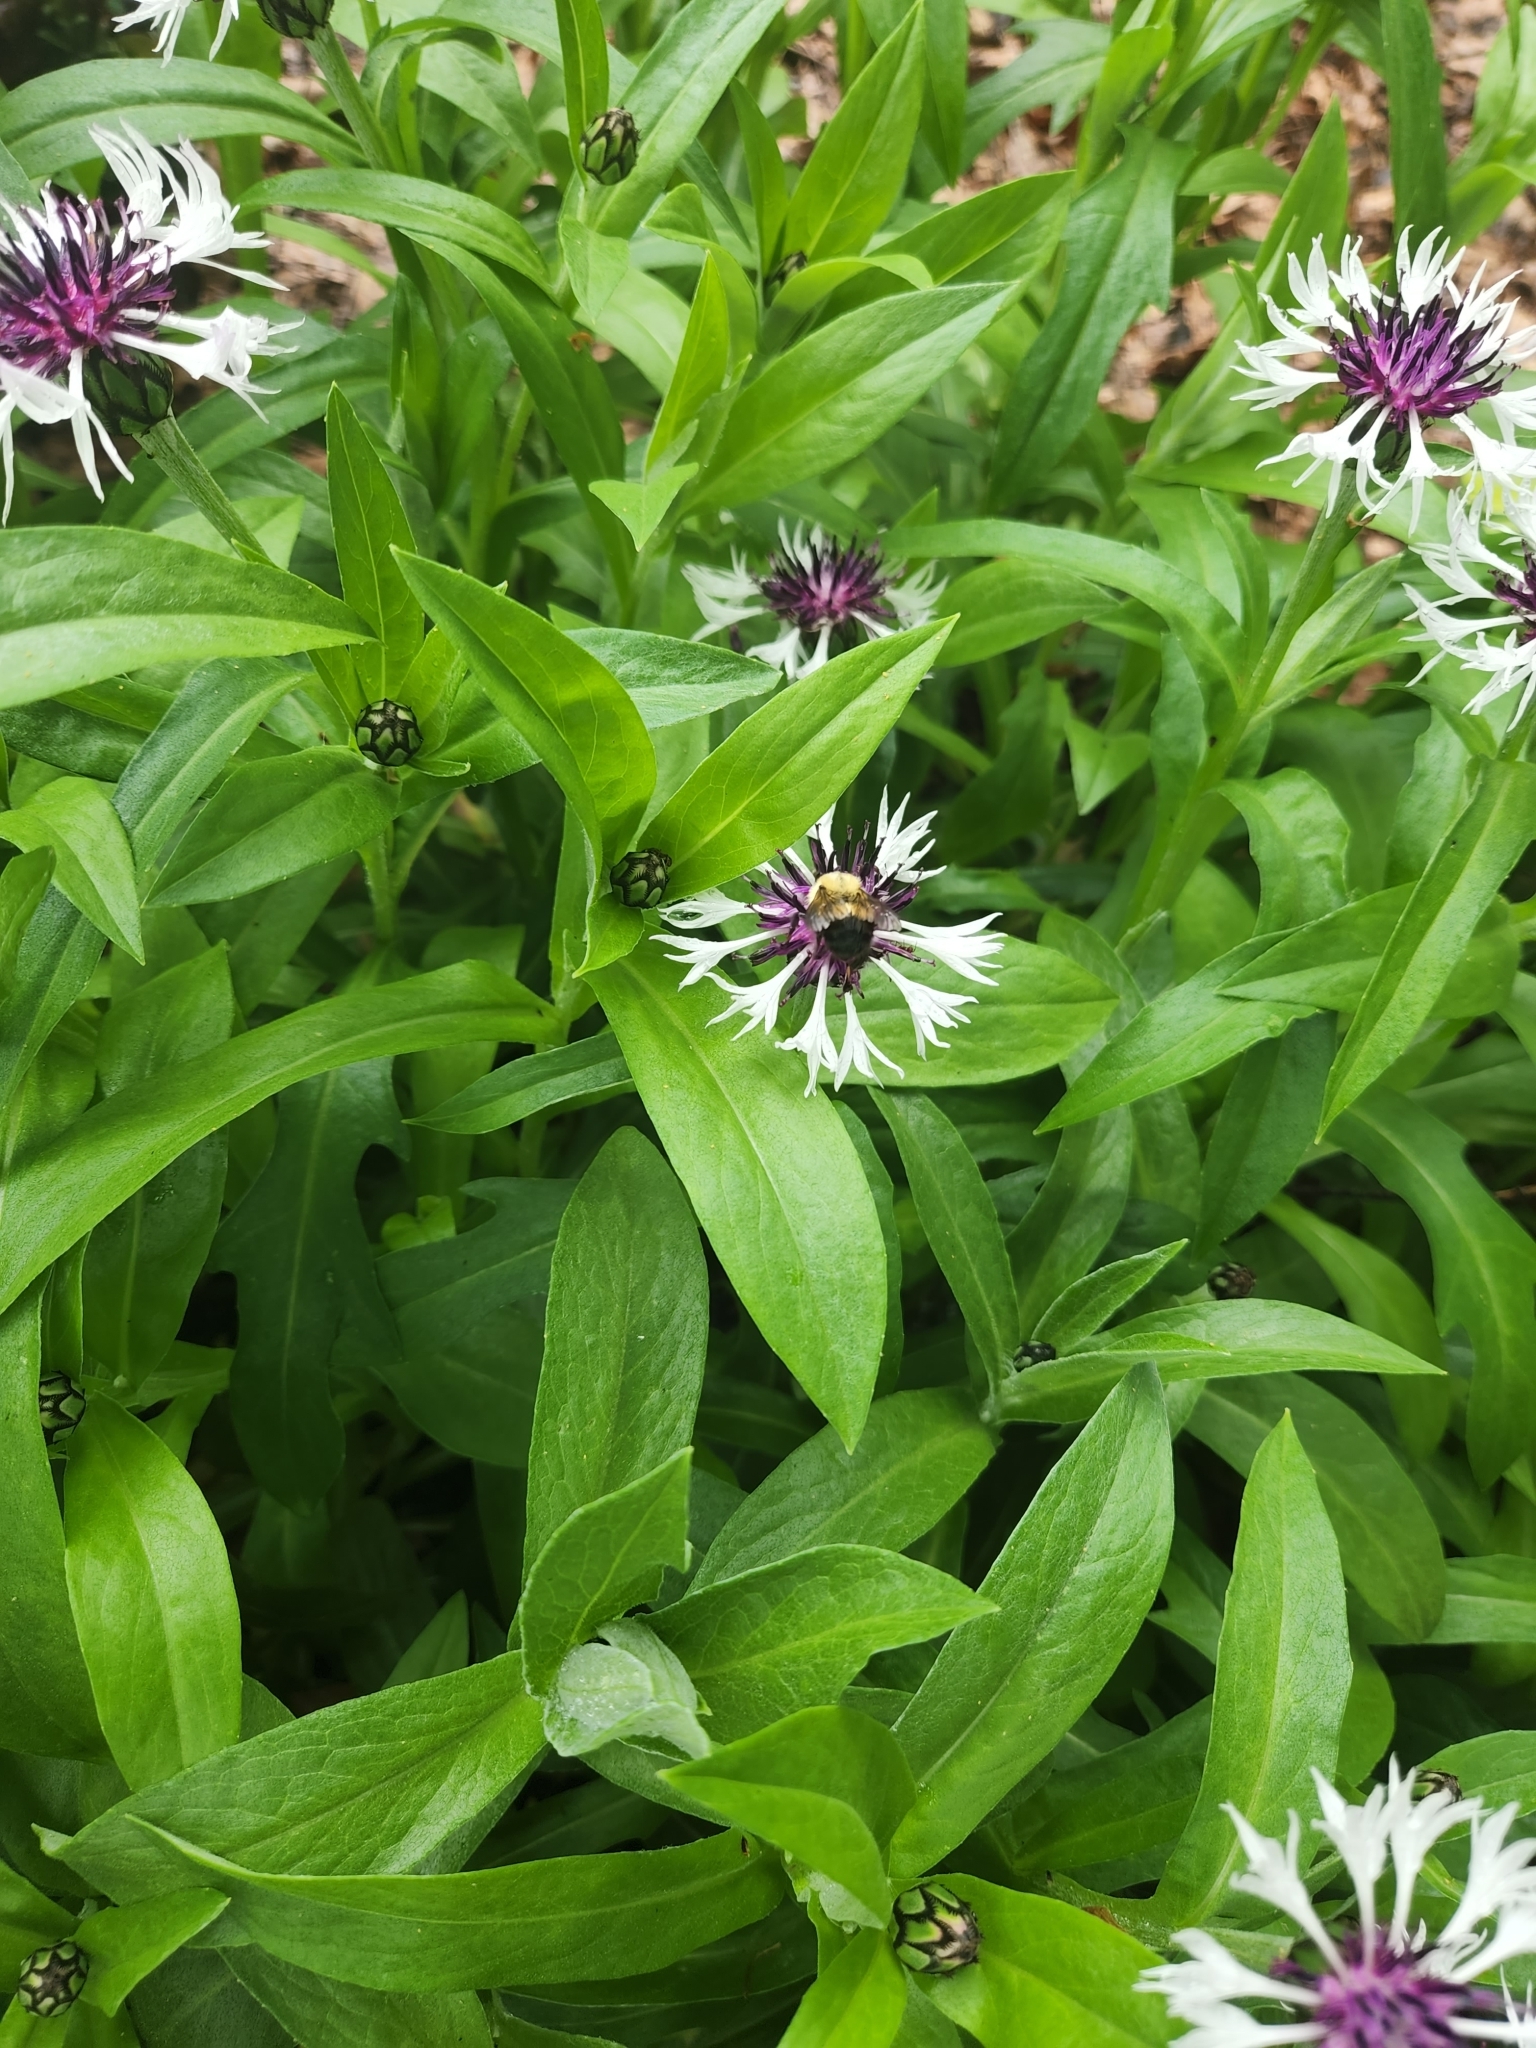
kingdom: Animalia
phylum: Arthropoda
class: Insecta
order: Hymenoptera
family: Apidae
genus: Pyrobombus
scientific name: Pyrobombus
